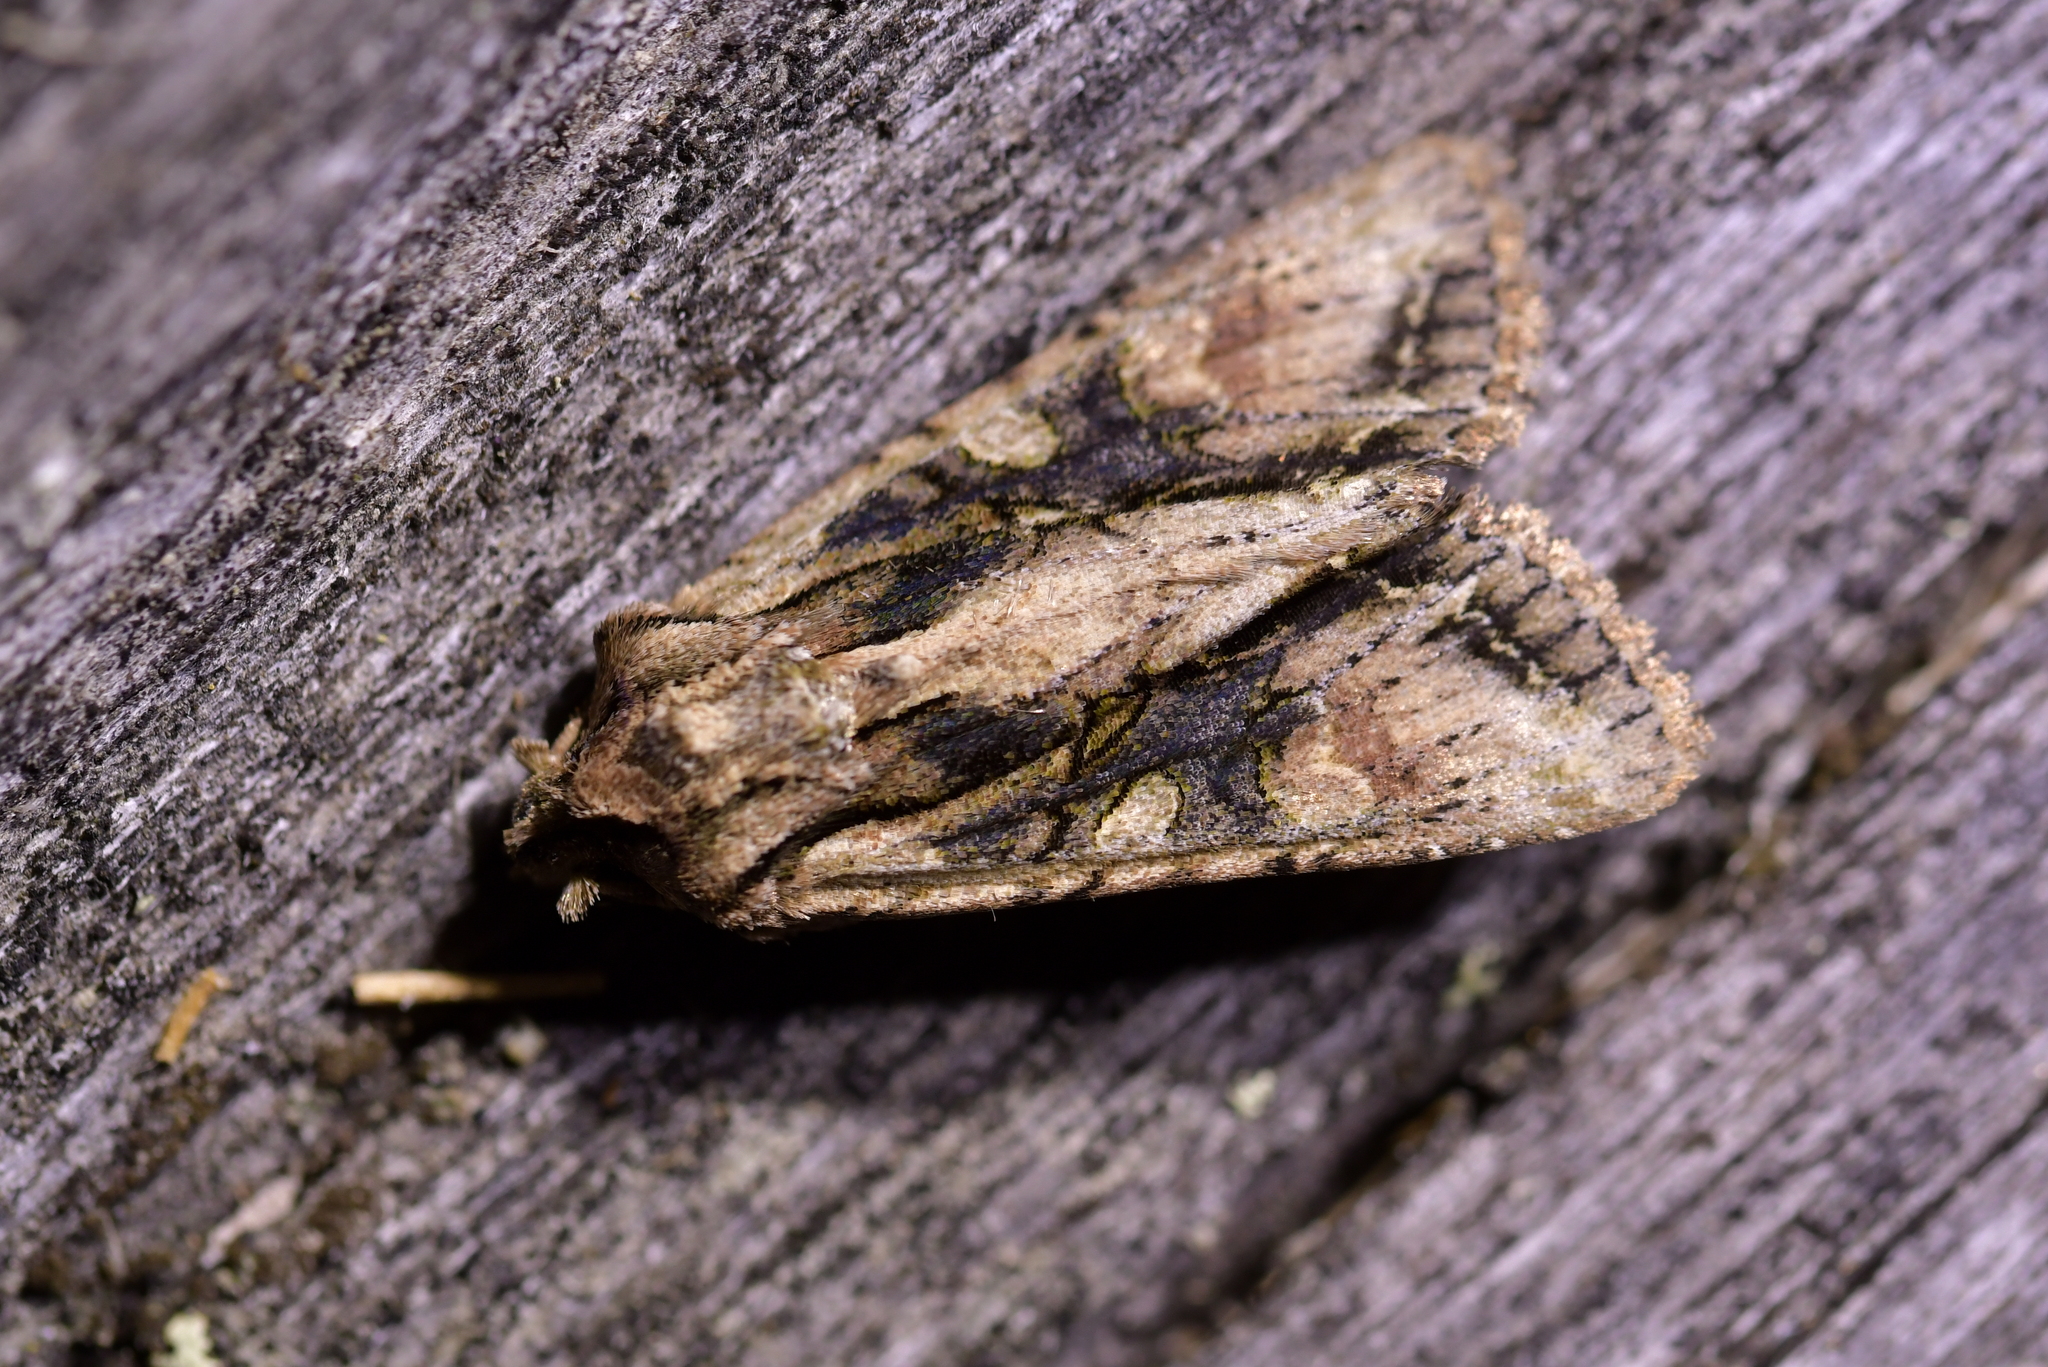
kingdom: Animalia
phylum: Arthropoda
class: Insecta
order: Lepidoptera
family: Noctuidae
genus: Ichneutica
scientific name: Ichneutica mutans
